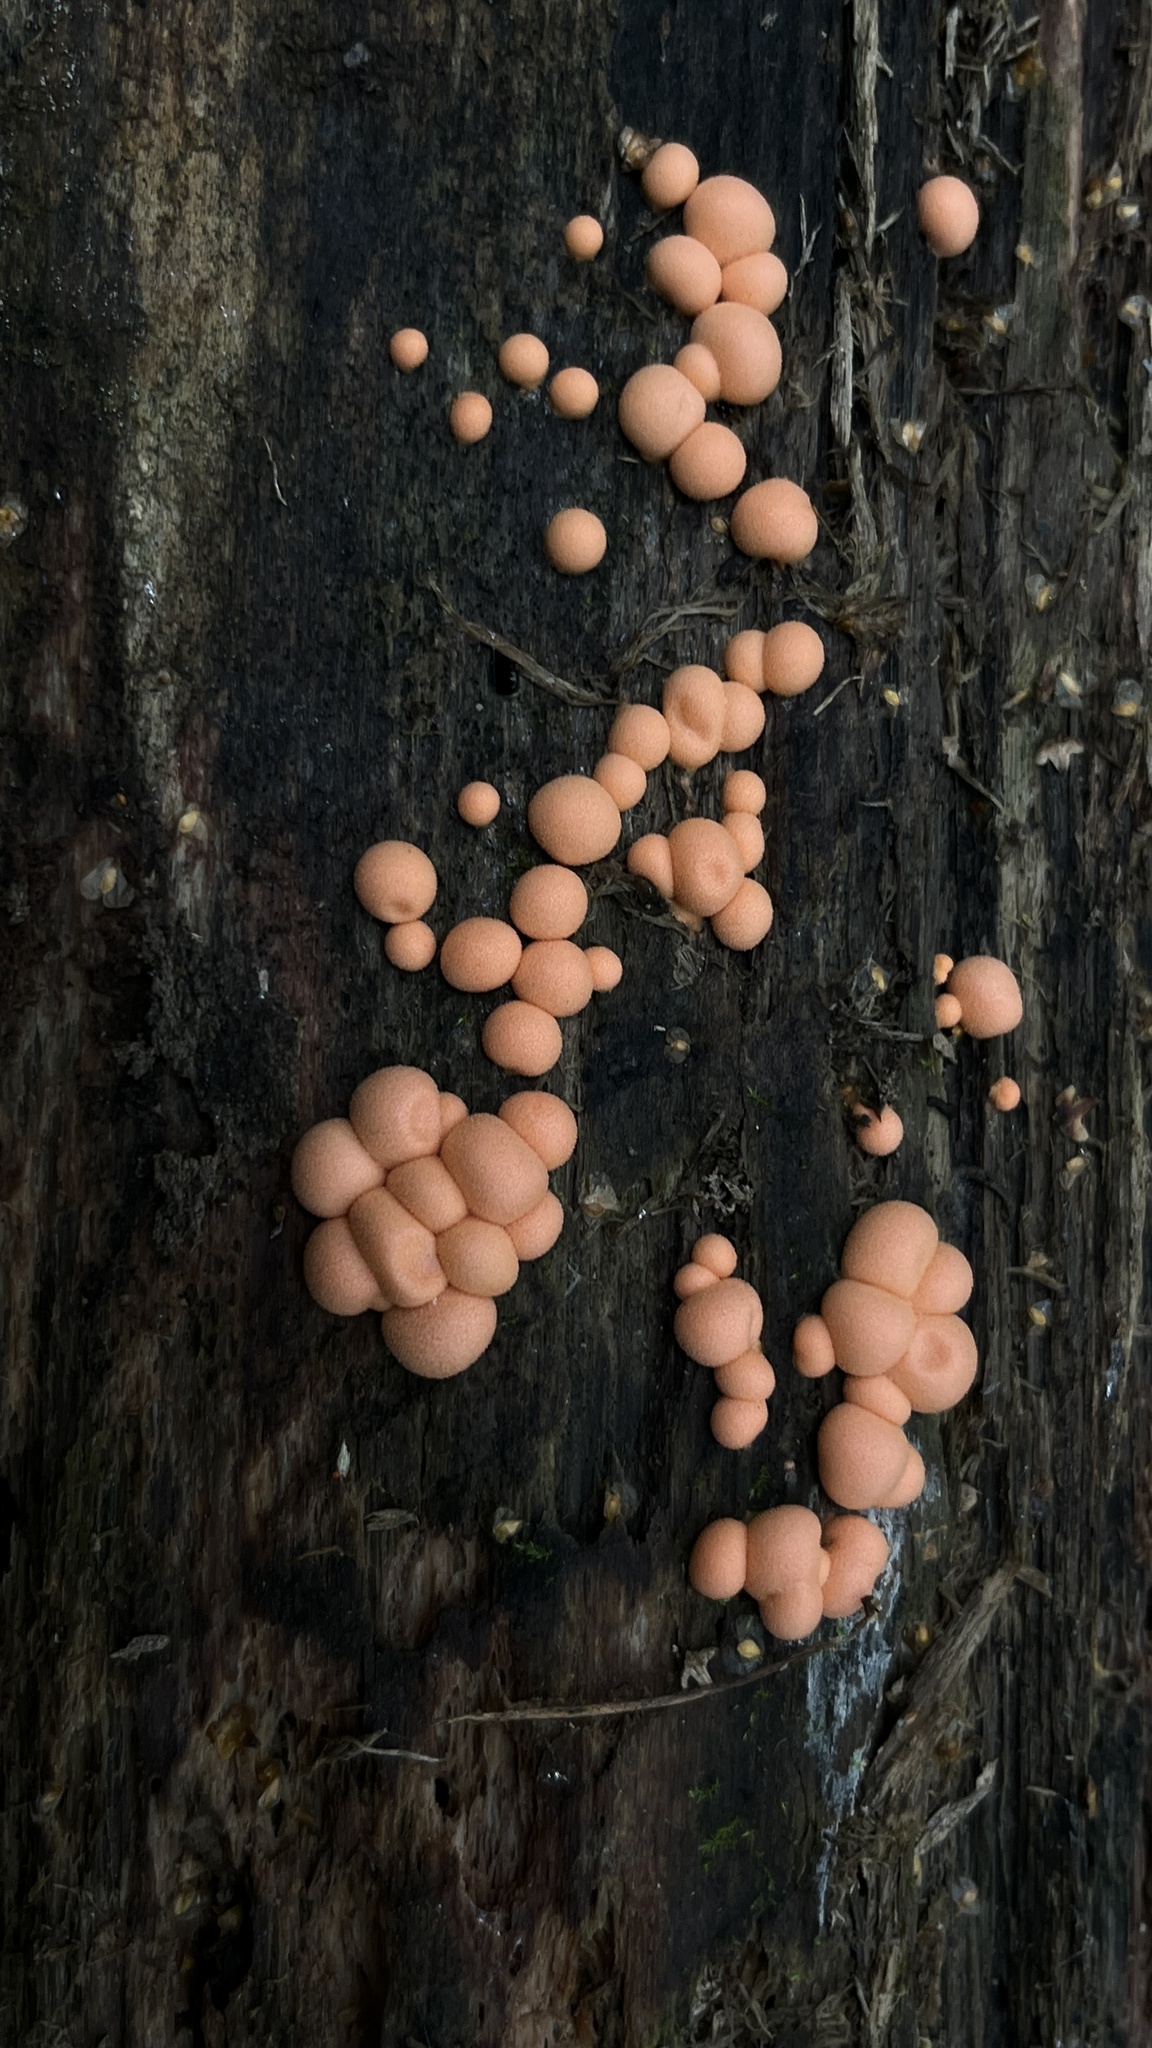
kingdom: Protozoa
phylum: Mycetozoa
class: Myxomycetes
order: Cribrariales
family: Tubiferaceae
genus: Lycogala
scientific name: Lycogala epidendrum
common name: Wolf's milk
